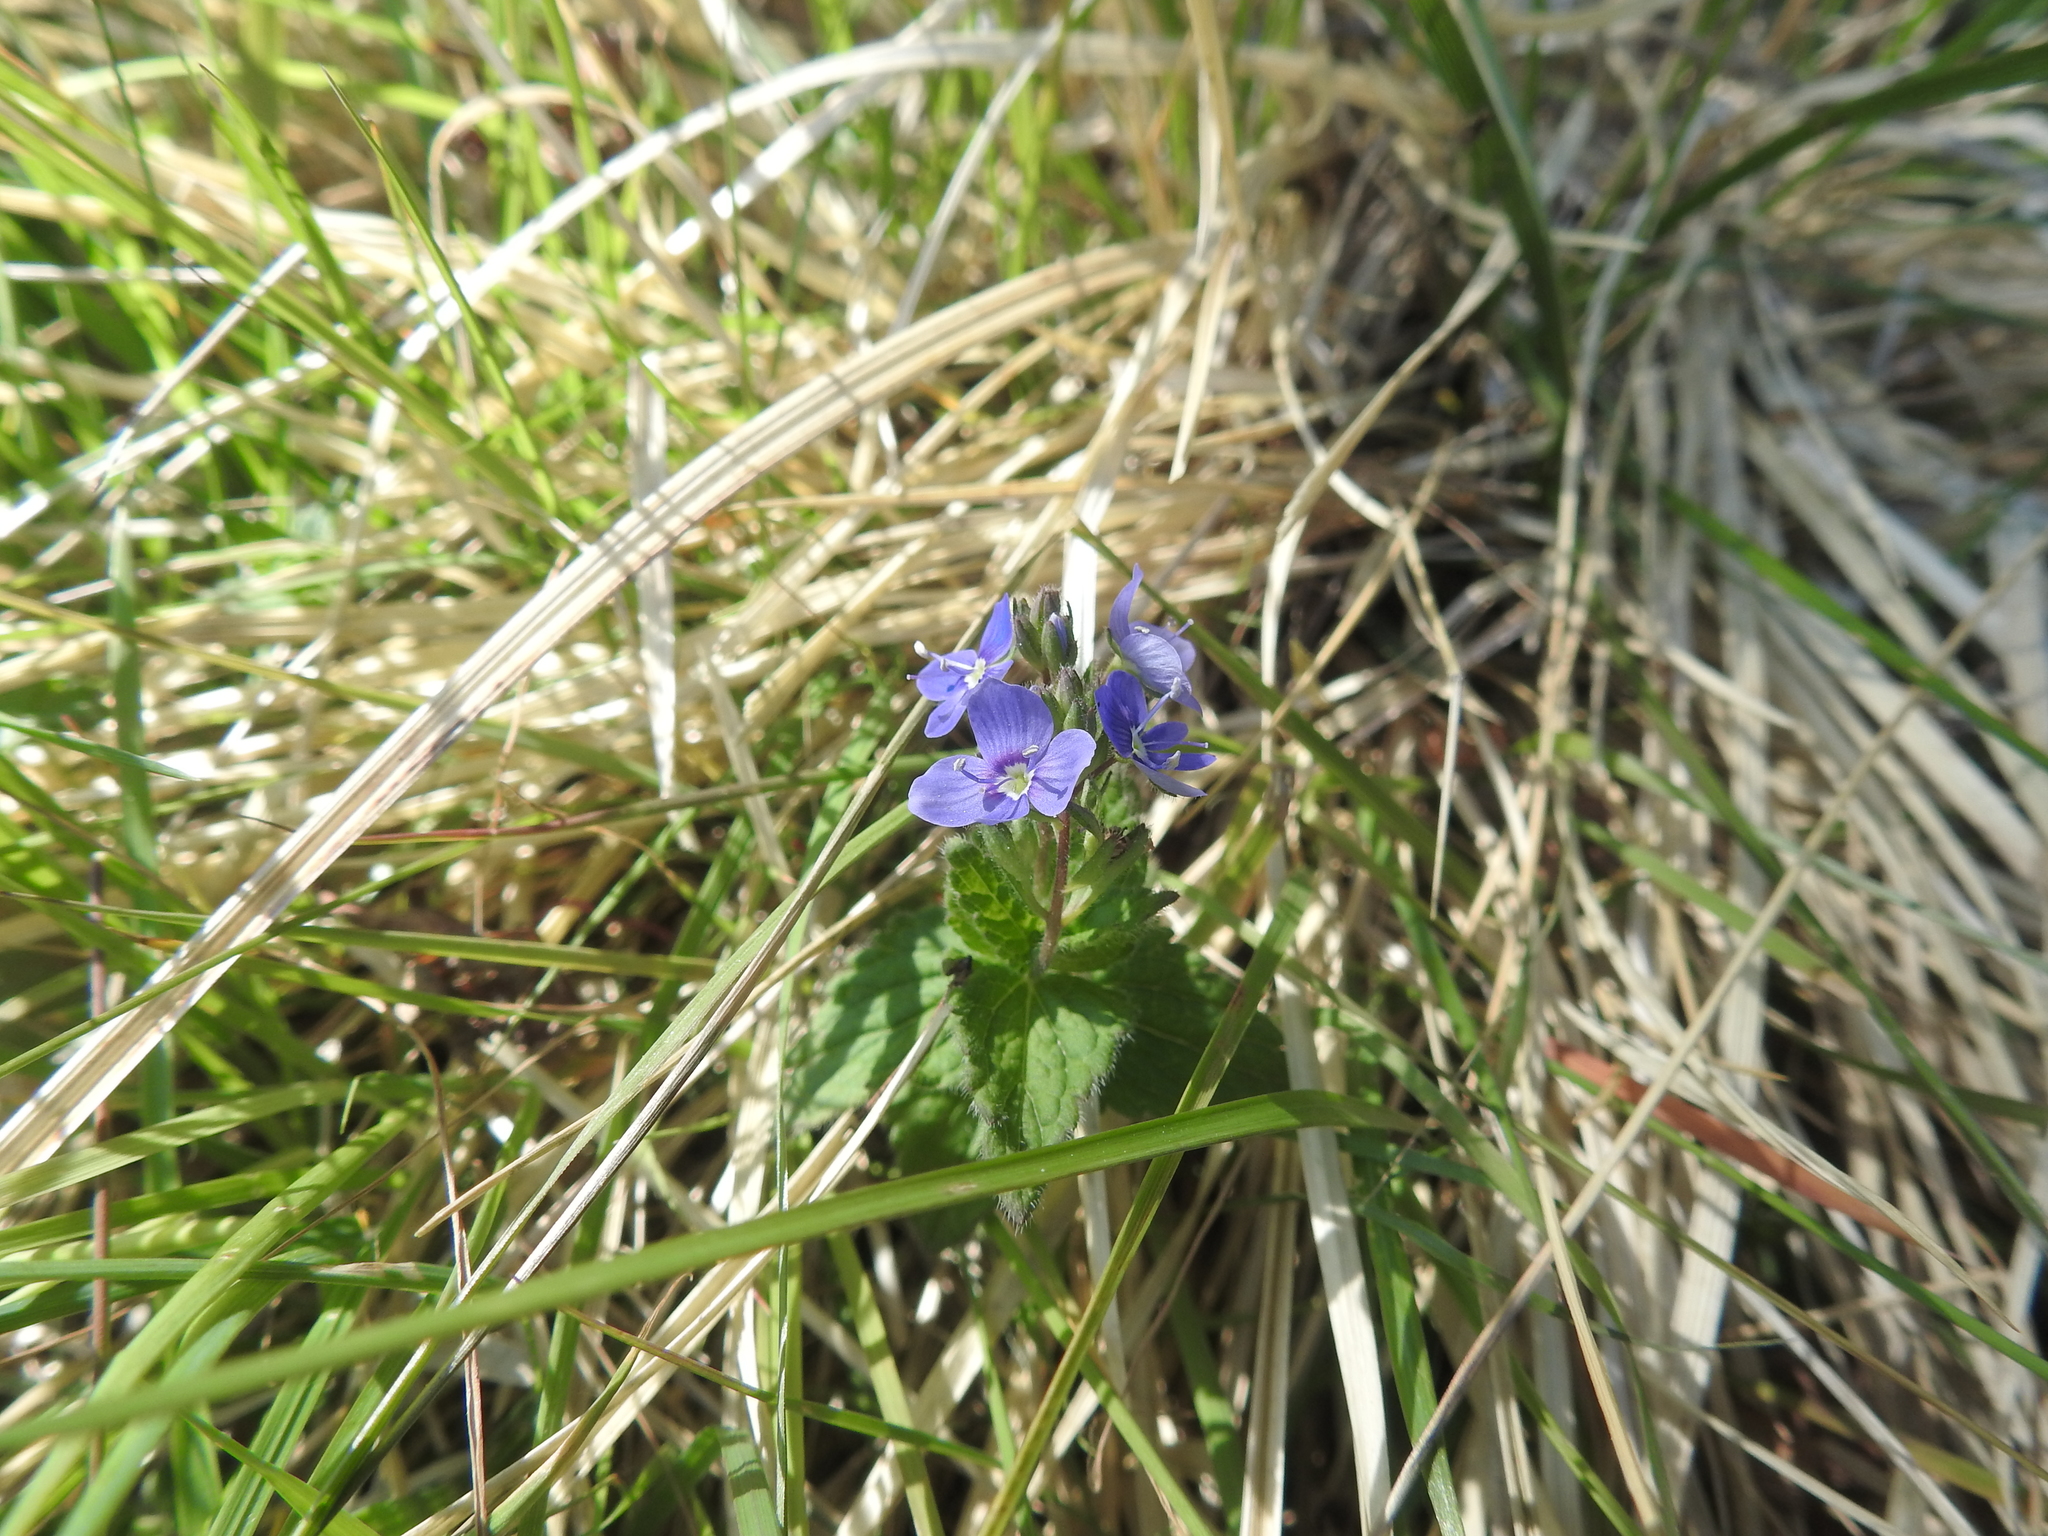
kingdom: Plantae
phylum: Tracheophyta
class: Magnoliopsida
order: Lamiales
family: Plantaginaceae
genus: Veronica
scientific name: Veronica chamaedrys
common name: Germander speedwell
